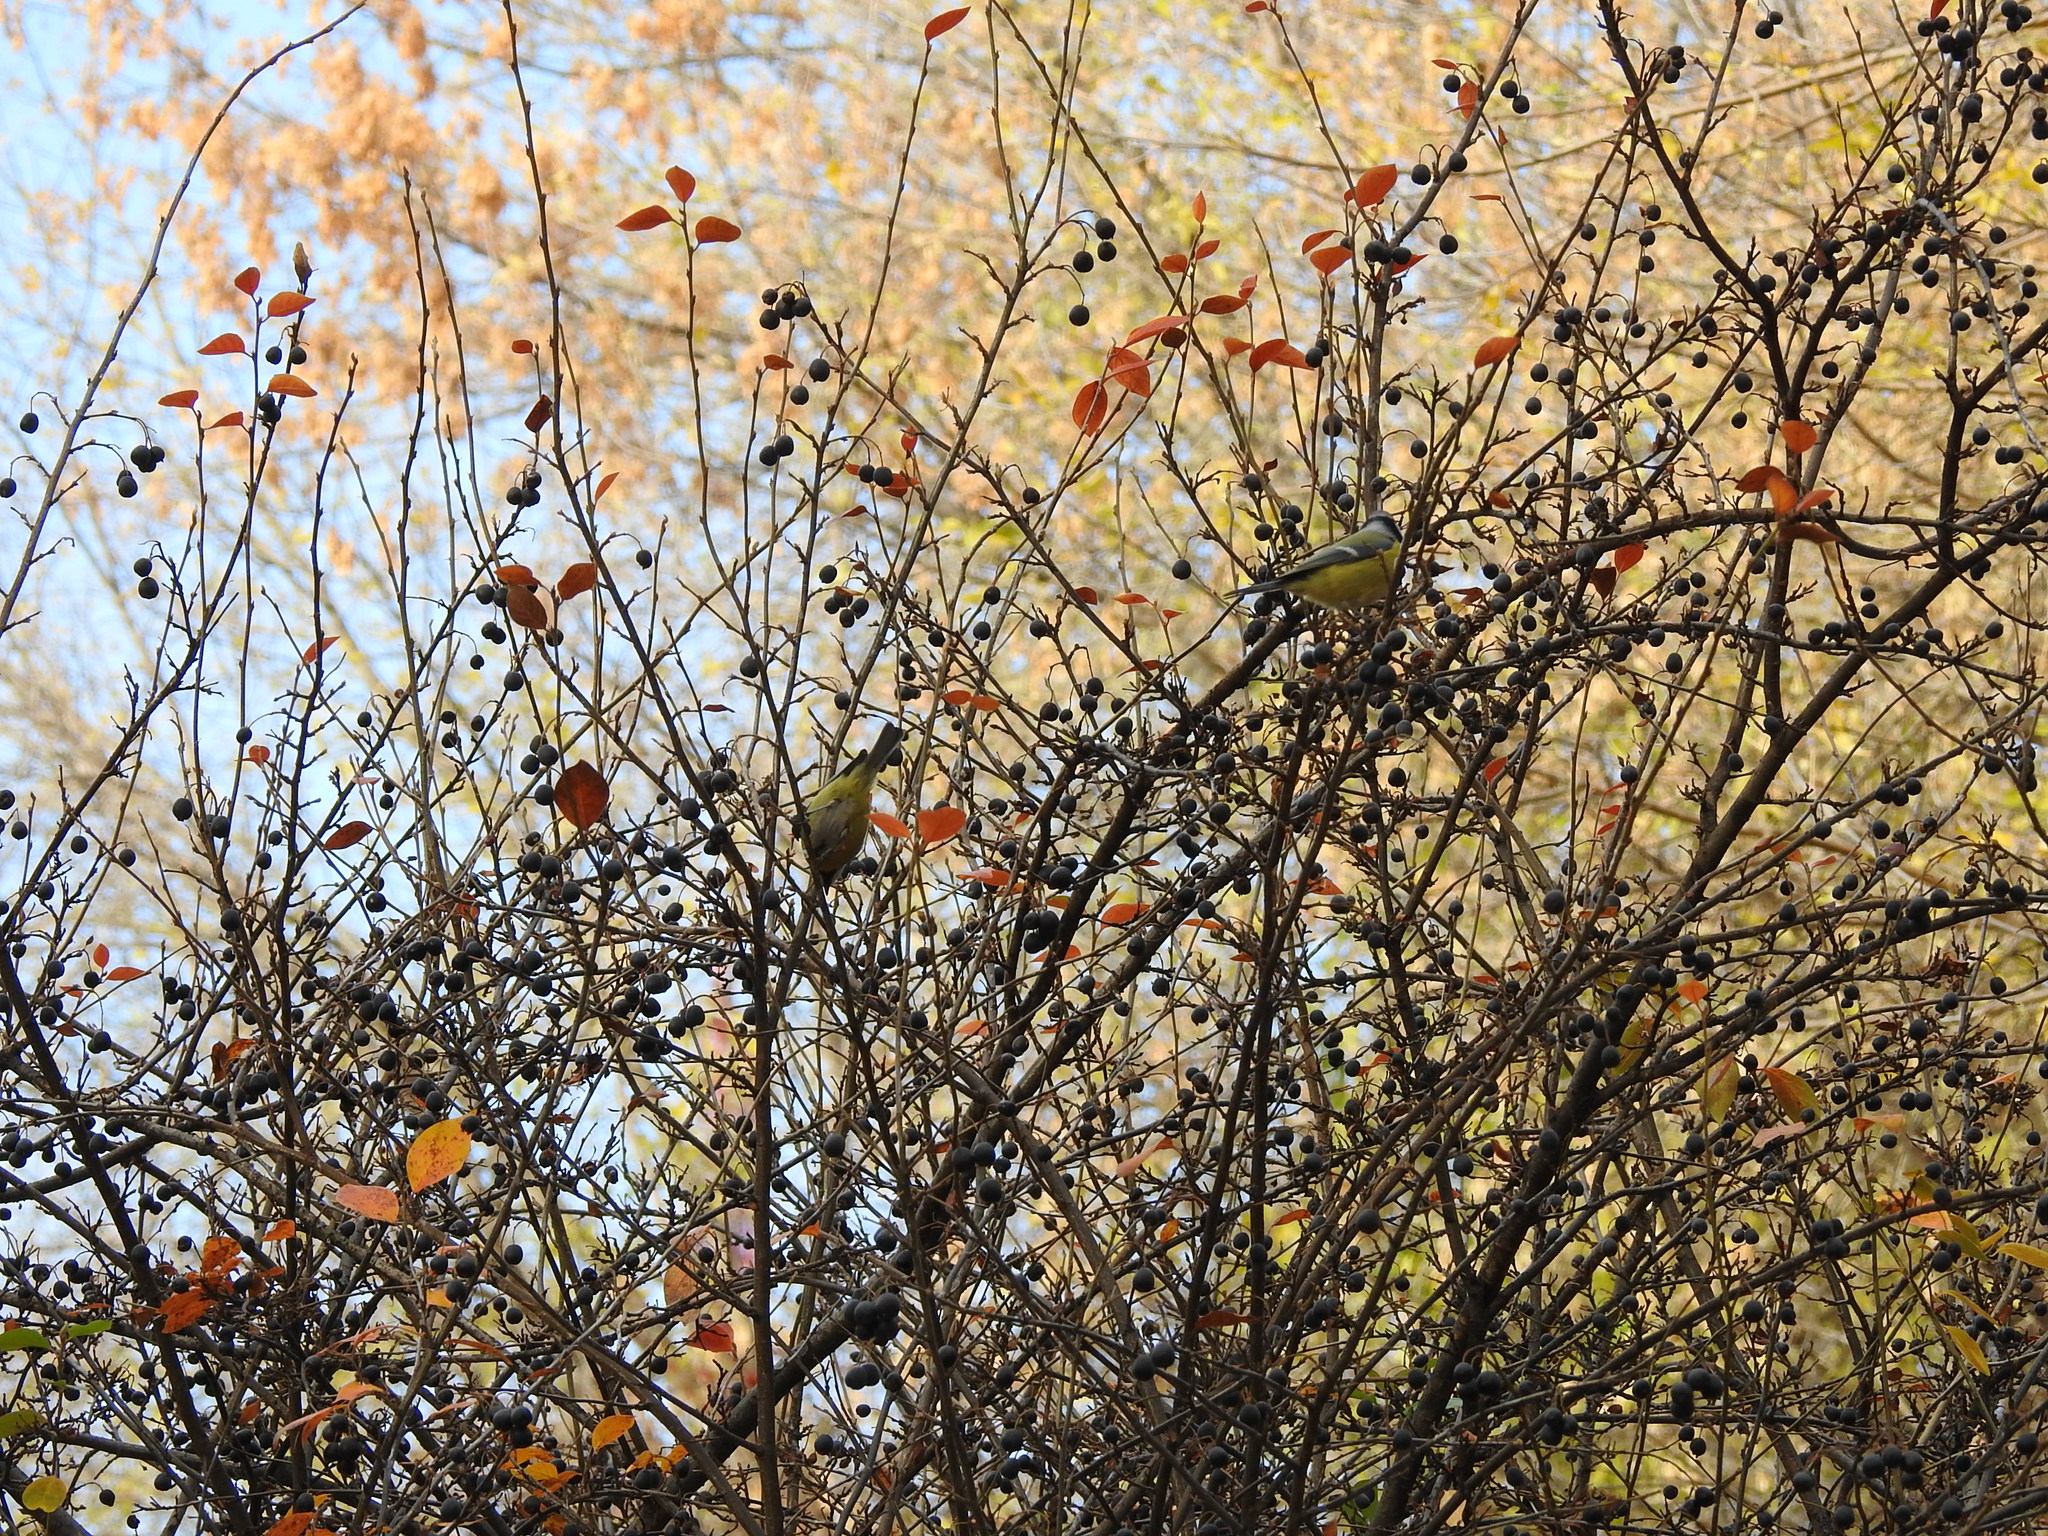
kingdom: Animalia
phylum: Chordata
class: Aves
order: Passeriformes
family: Paridae
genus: Cyanistes
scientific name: Cyanistes caeruleus
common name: Eurasian blue tit
